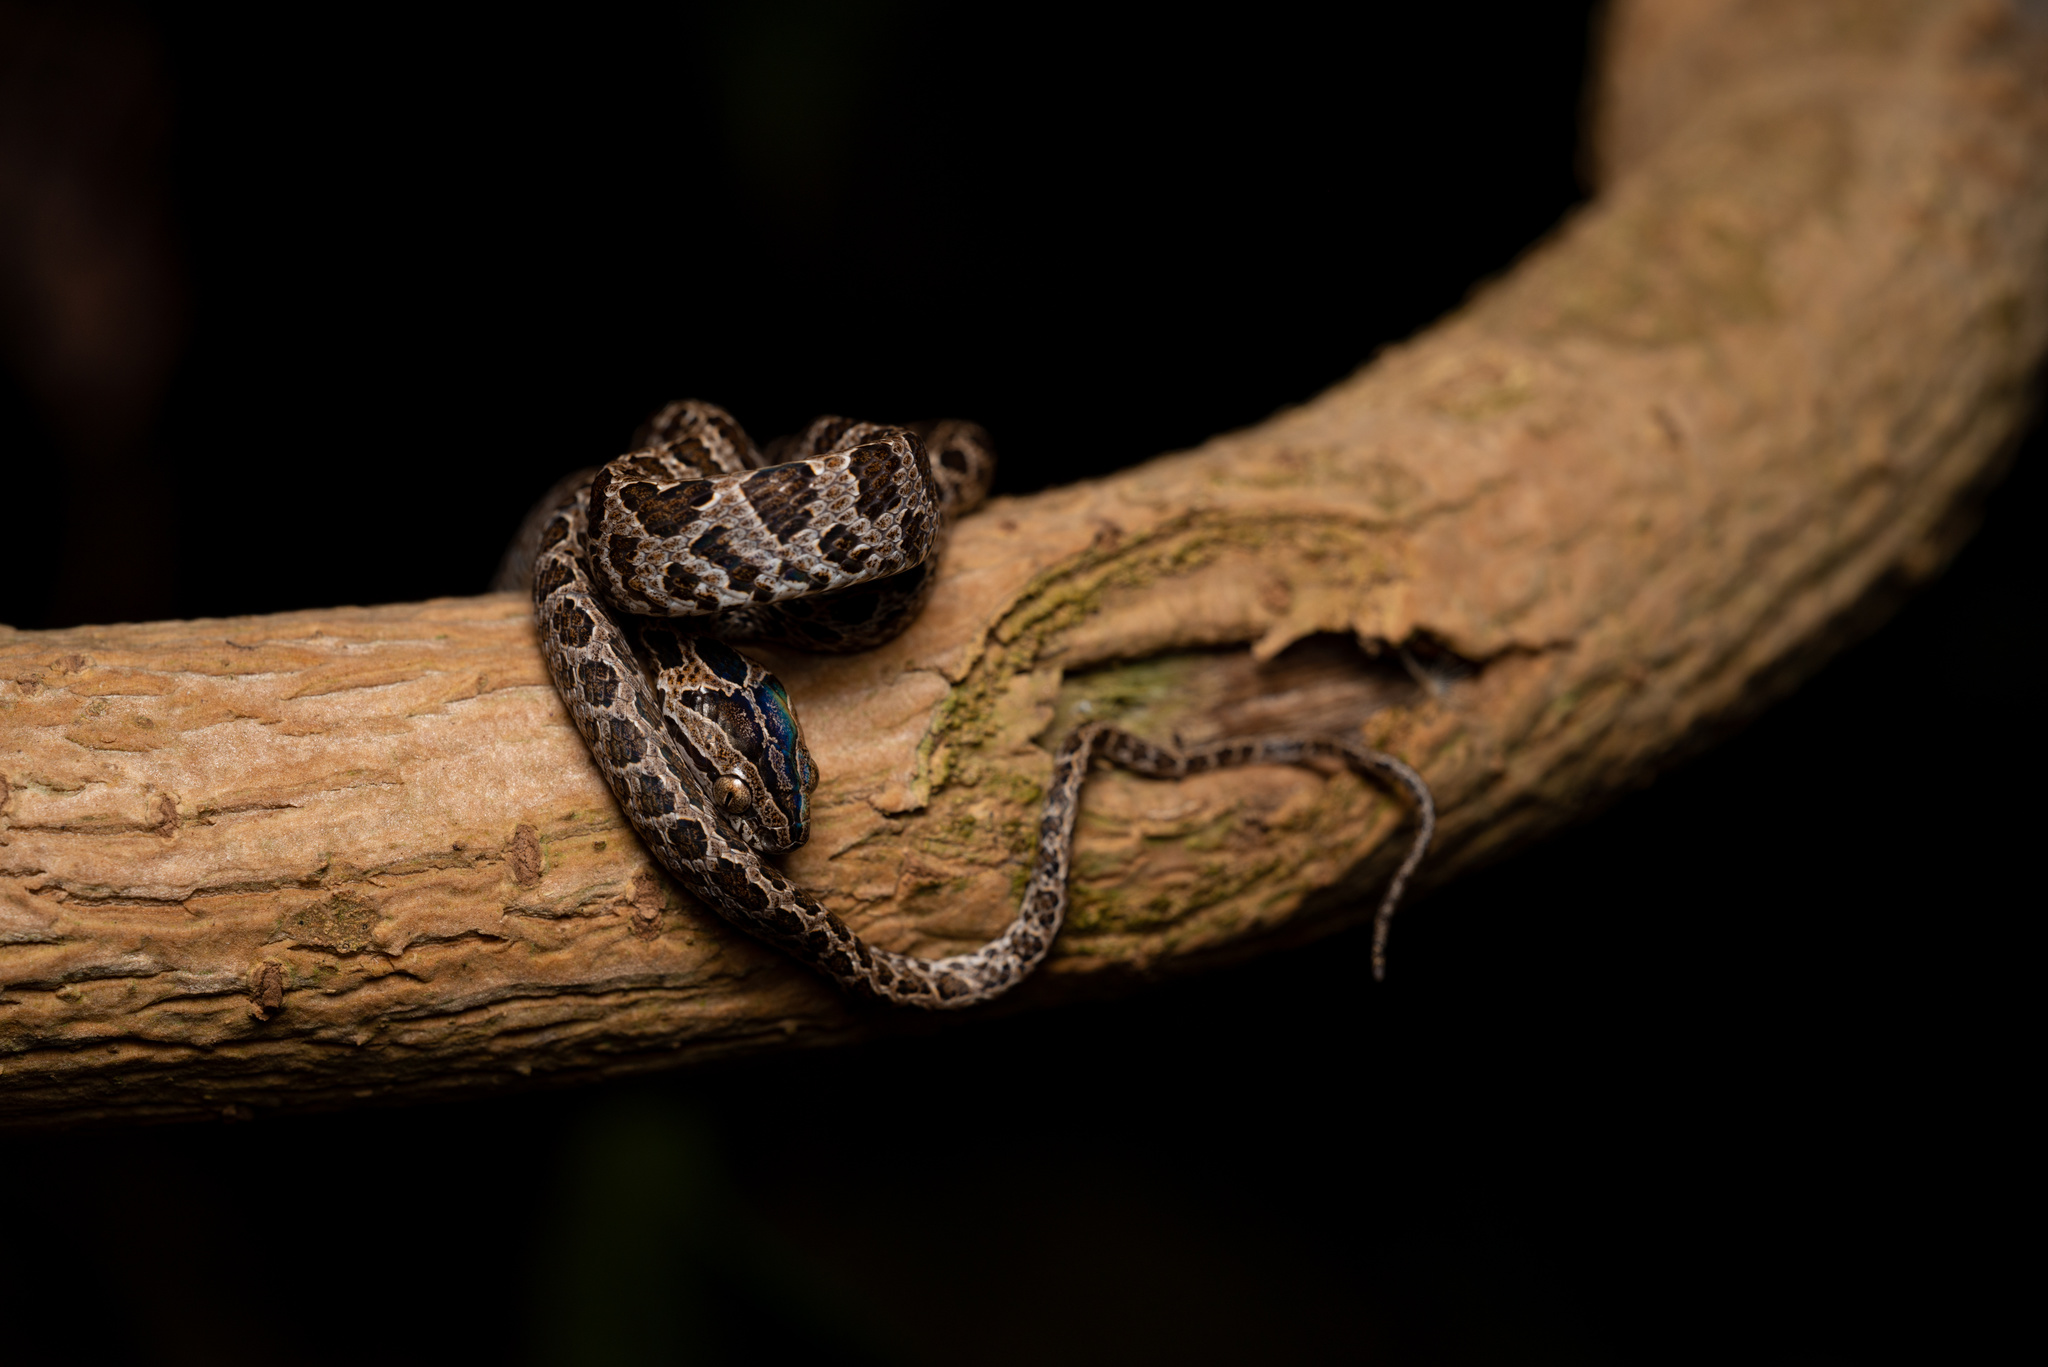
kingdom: Animalia
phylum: Chordata
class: Squamata
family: Colubridae
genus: Boiga
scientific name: Boiga multomaculata
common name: Many-spotted cat snake
